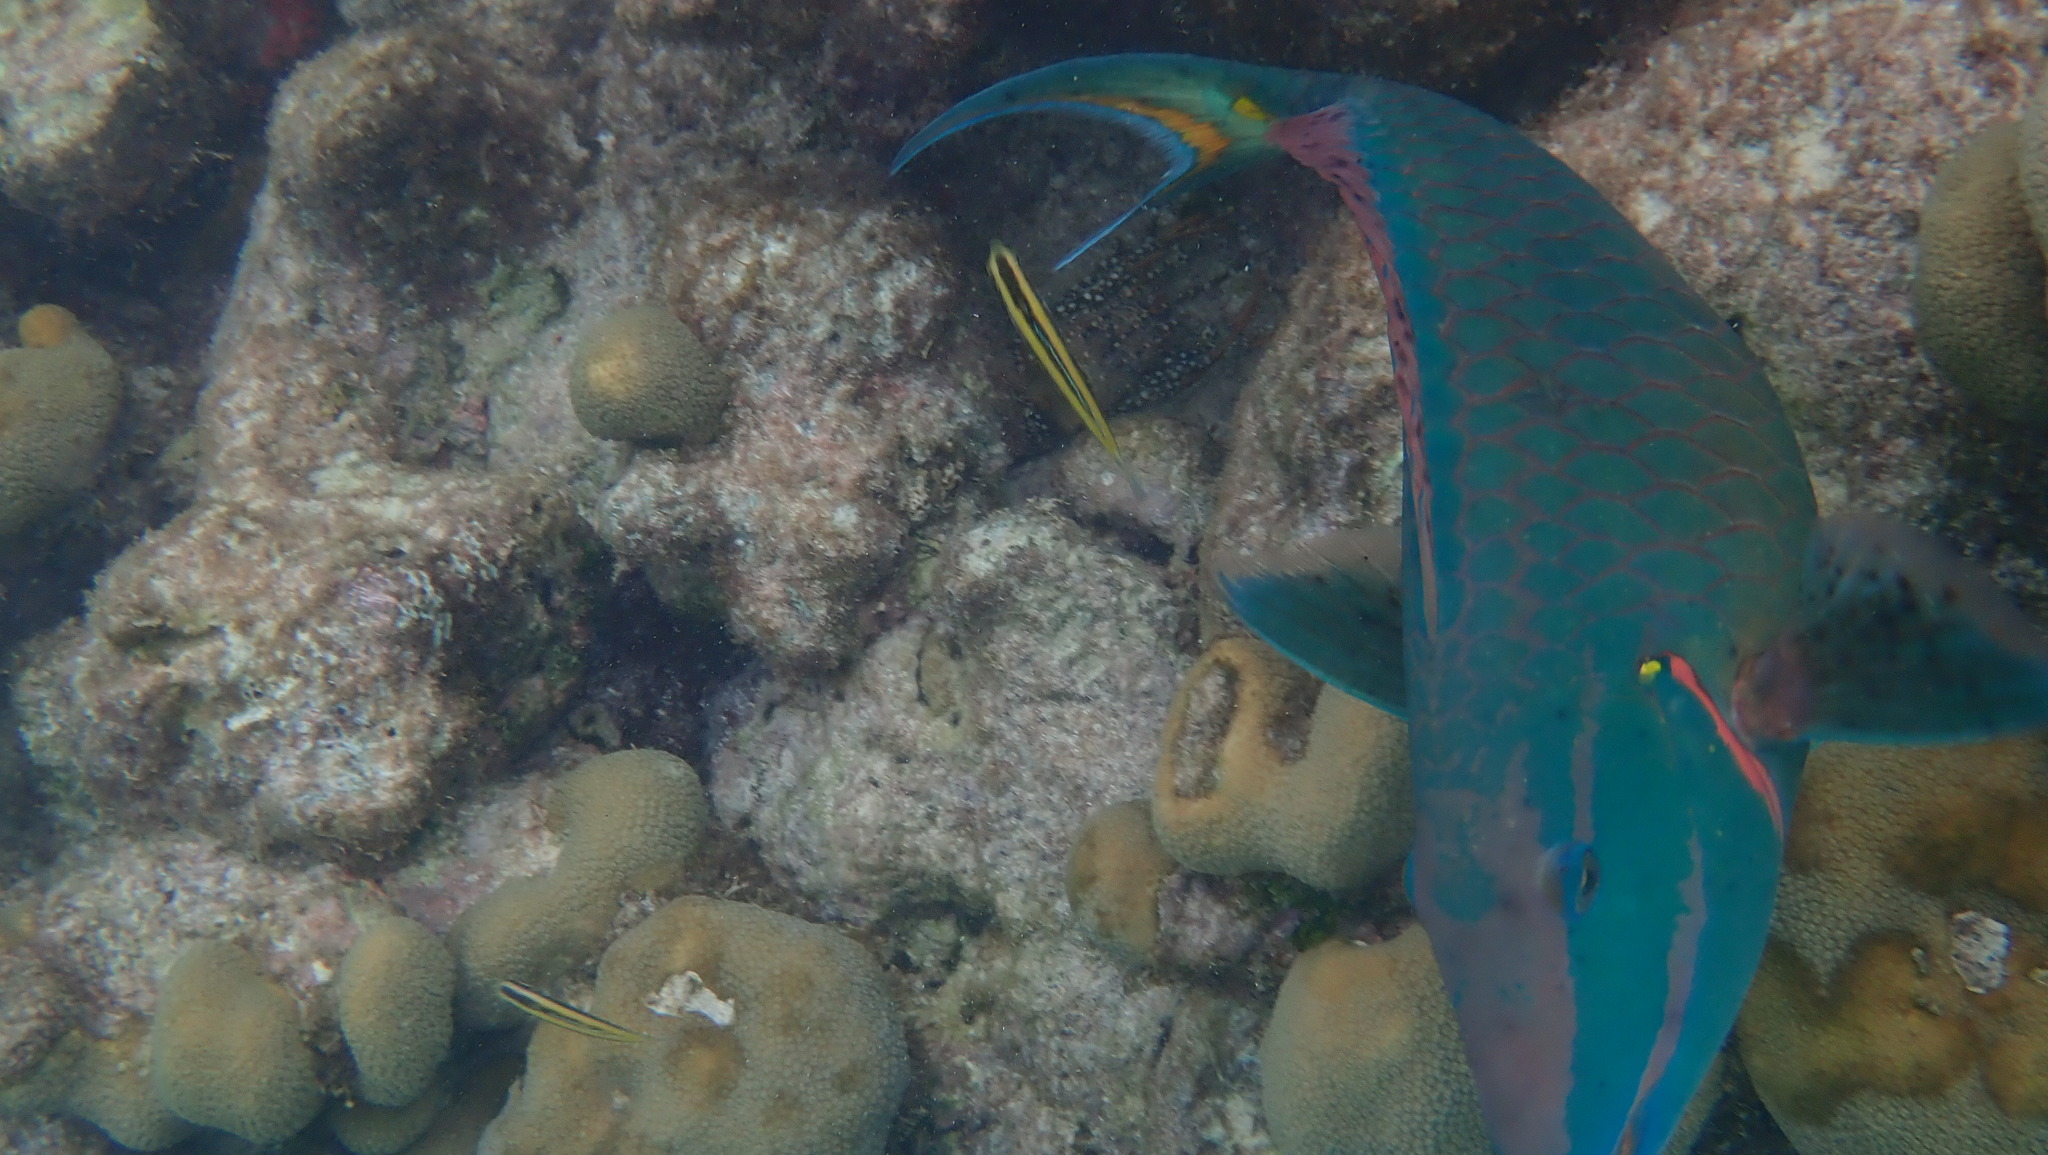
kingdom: Animalia
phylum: Chordata
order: Perciformes
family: Scaridae
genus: Sparisoma
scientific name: Sparisoma viride
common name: Stoplight parrotfish
